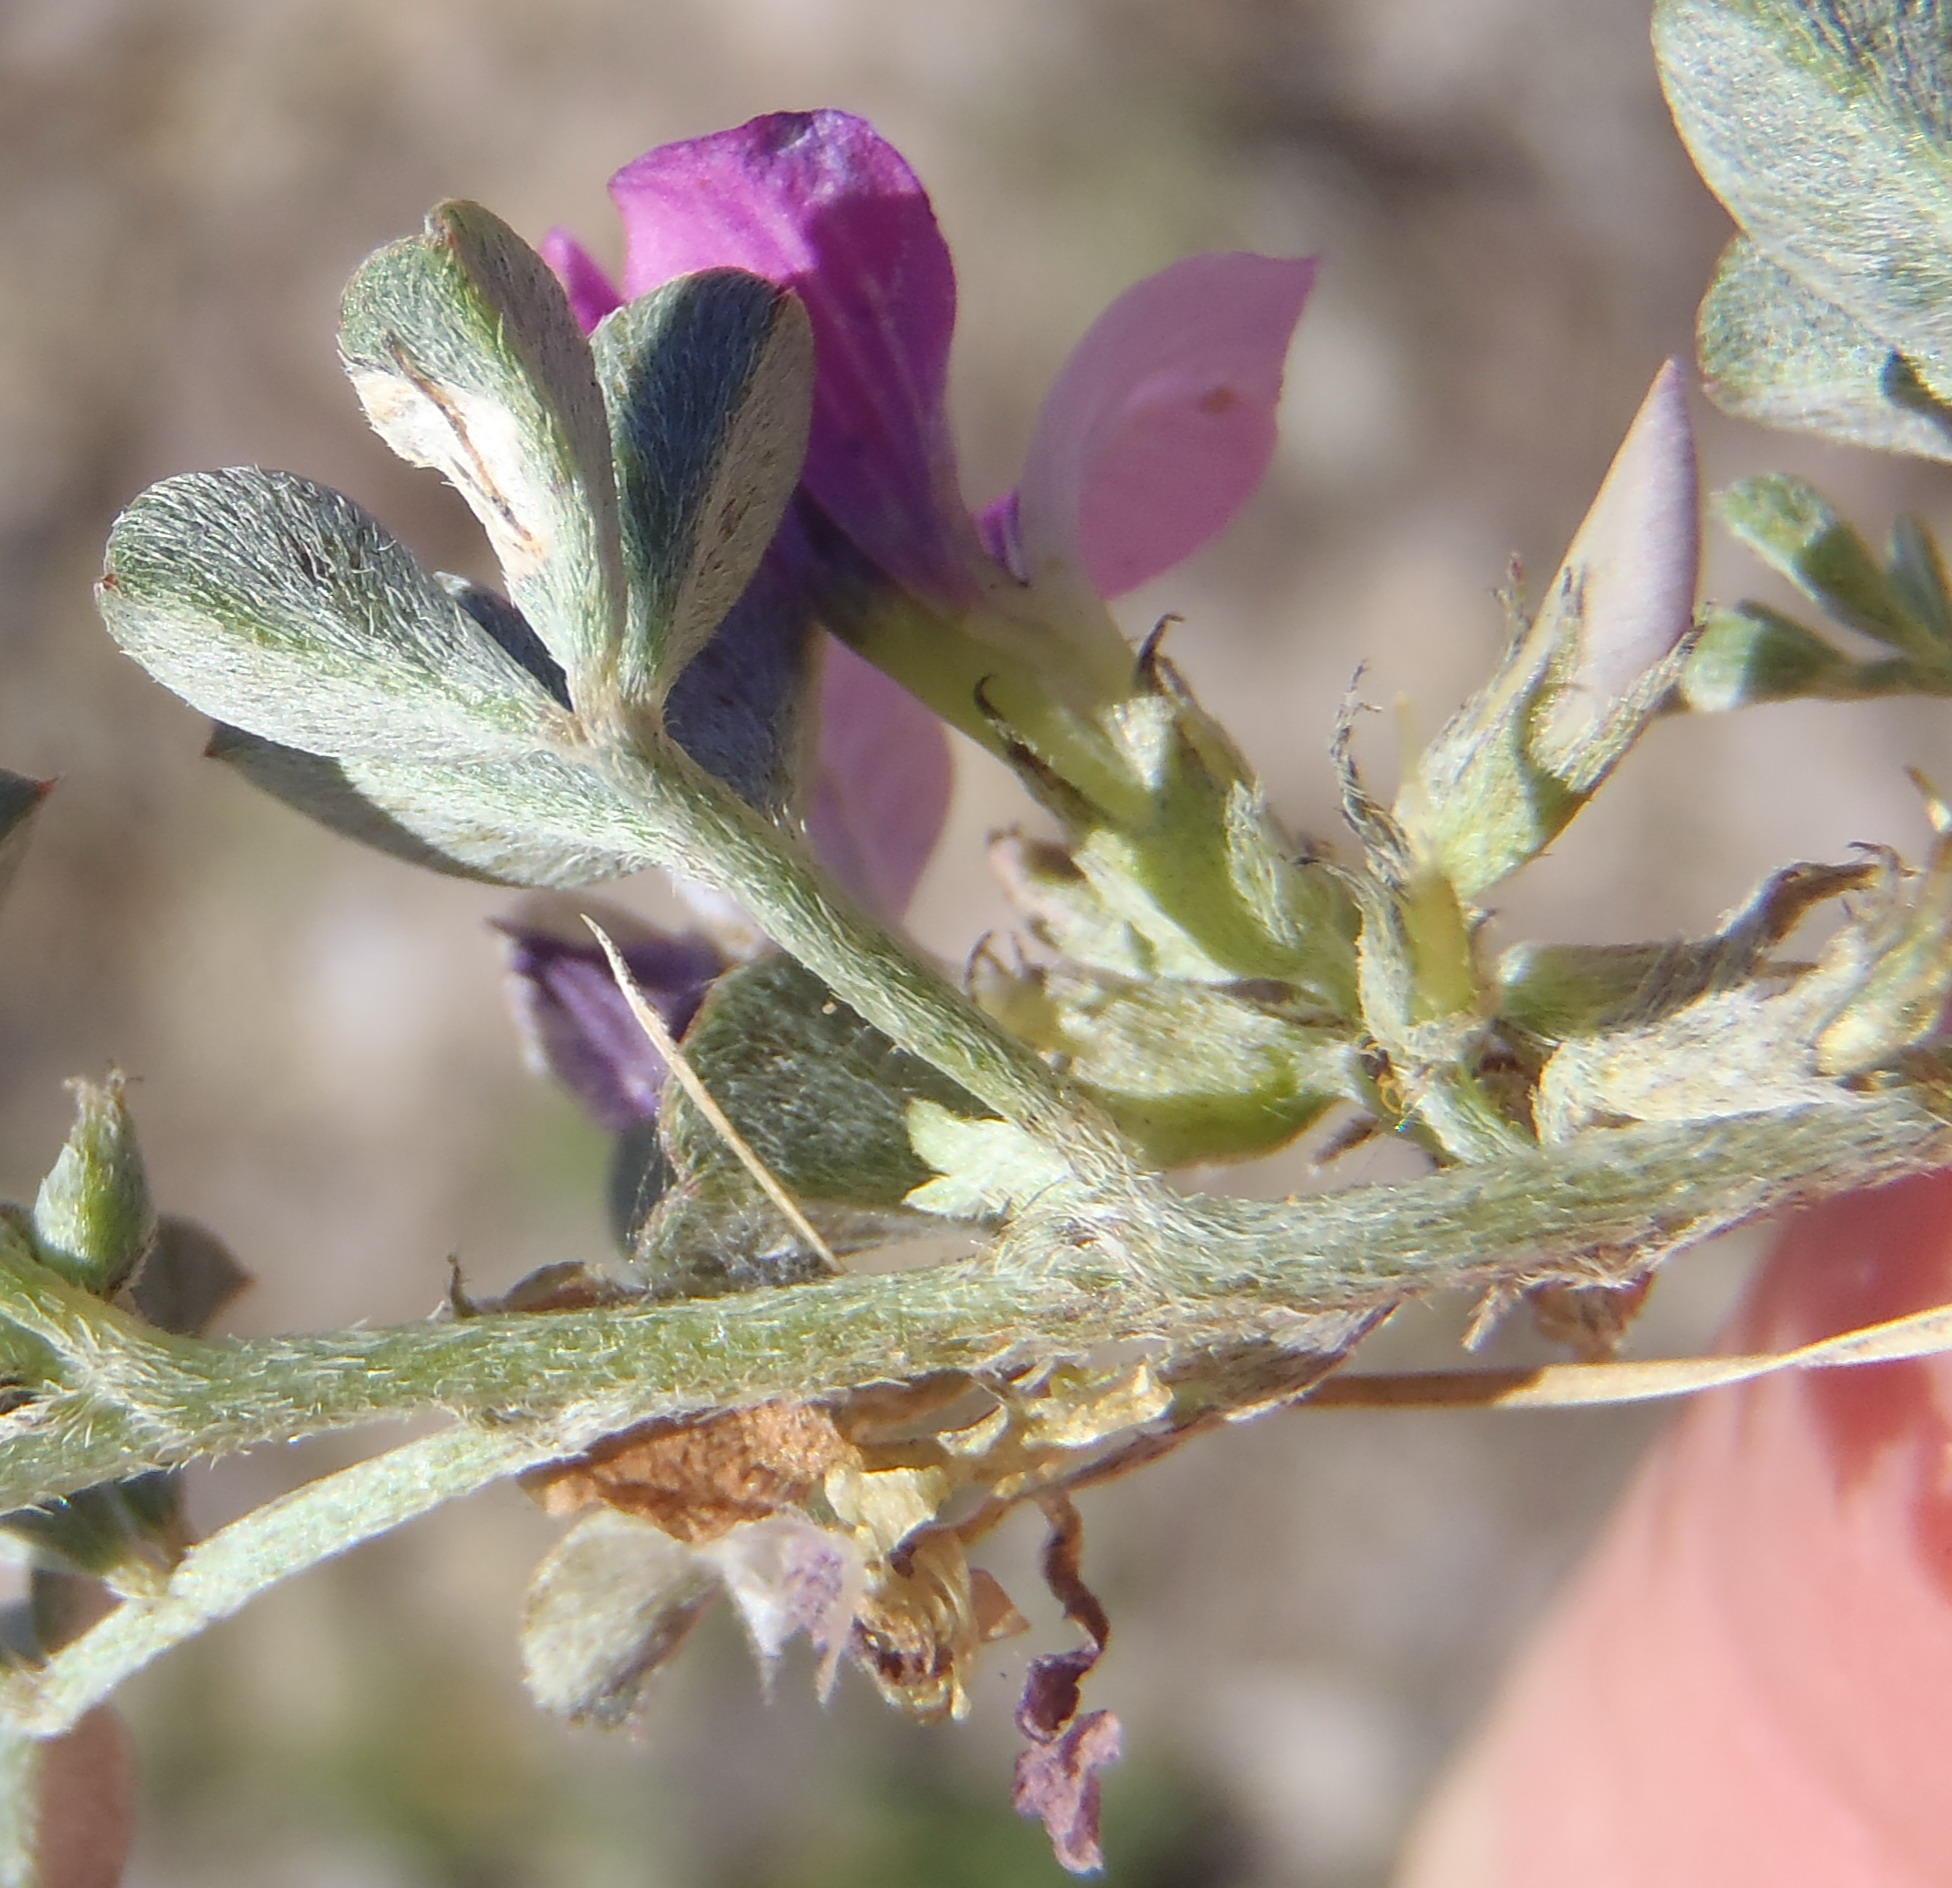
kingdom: Plantae
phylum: Tracheophyta
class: Magnoliopsida
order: Fabales
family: Fabaceae
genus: Indigastrum
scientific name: Indigastrum niveum
